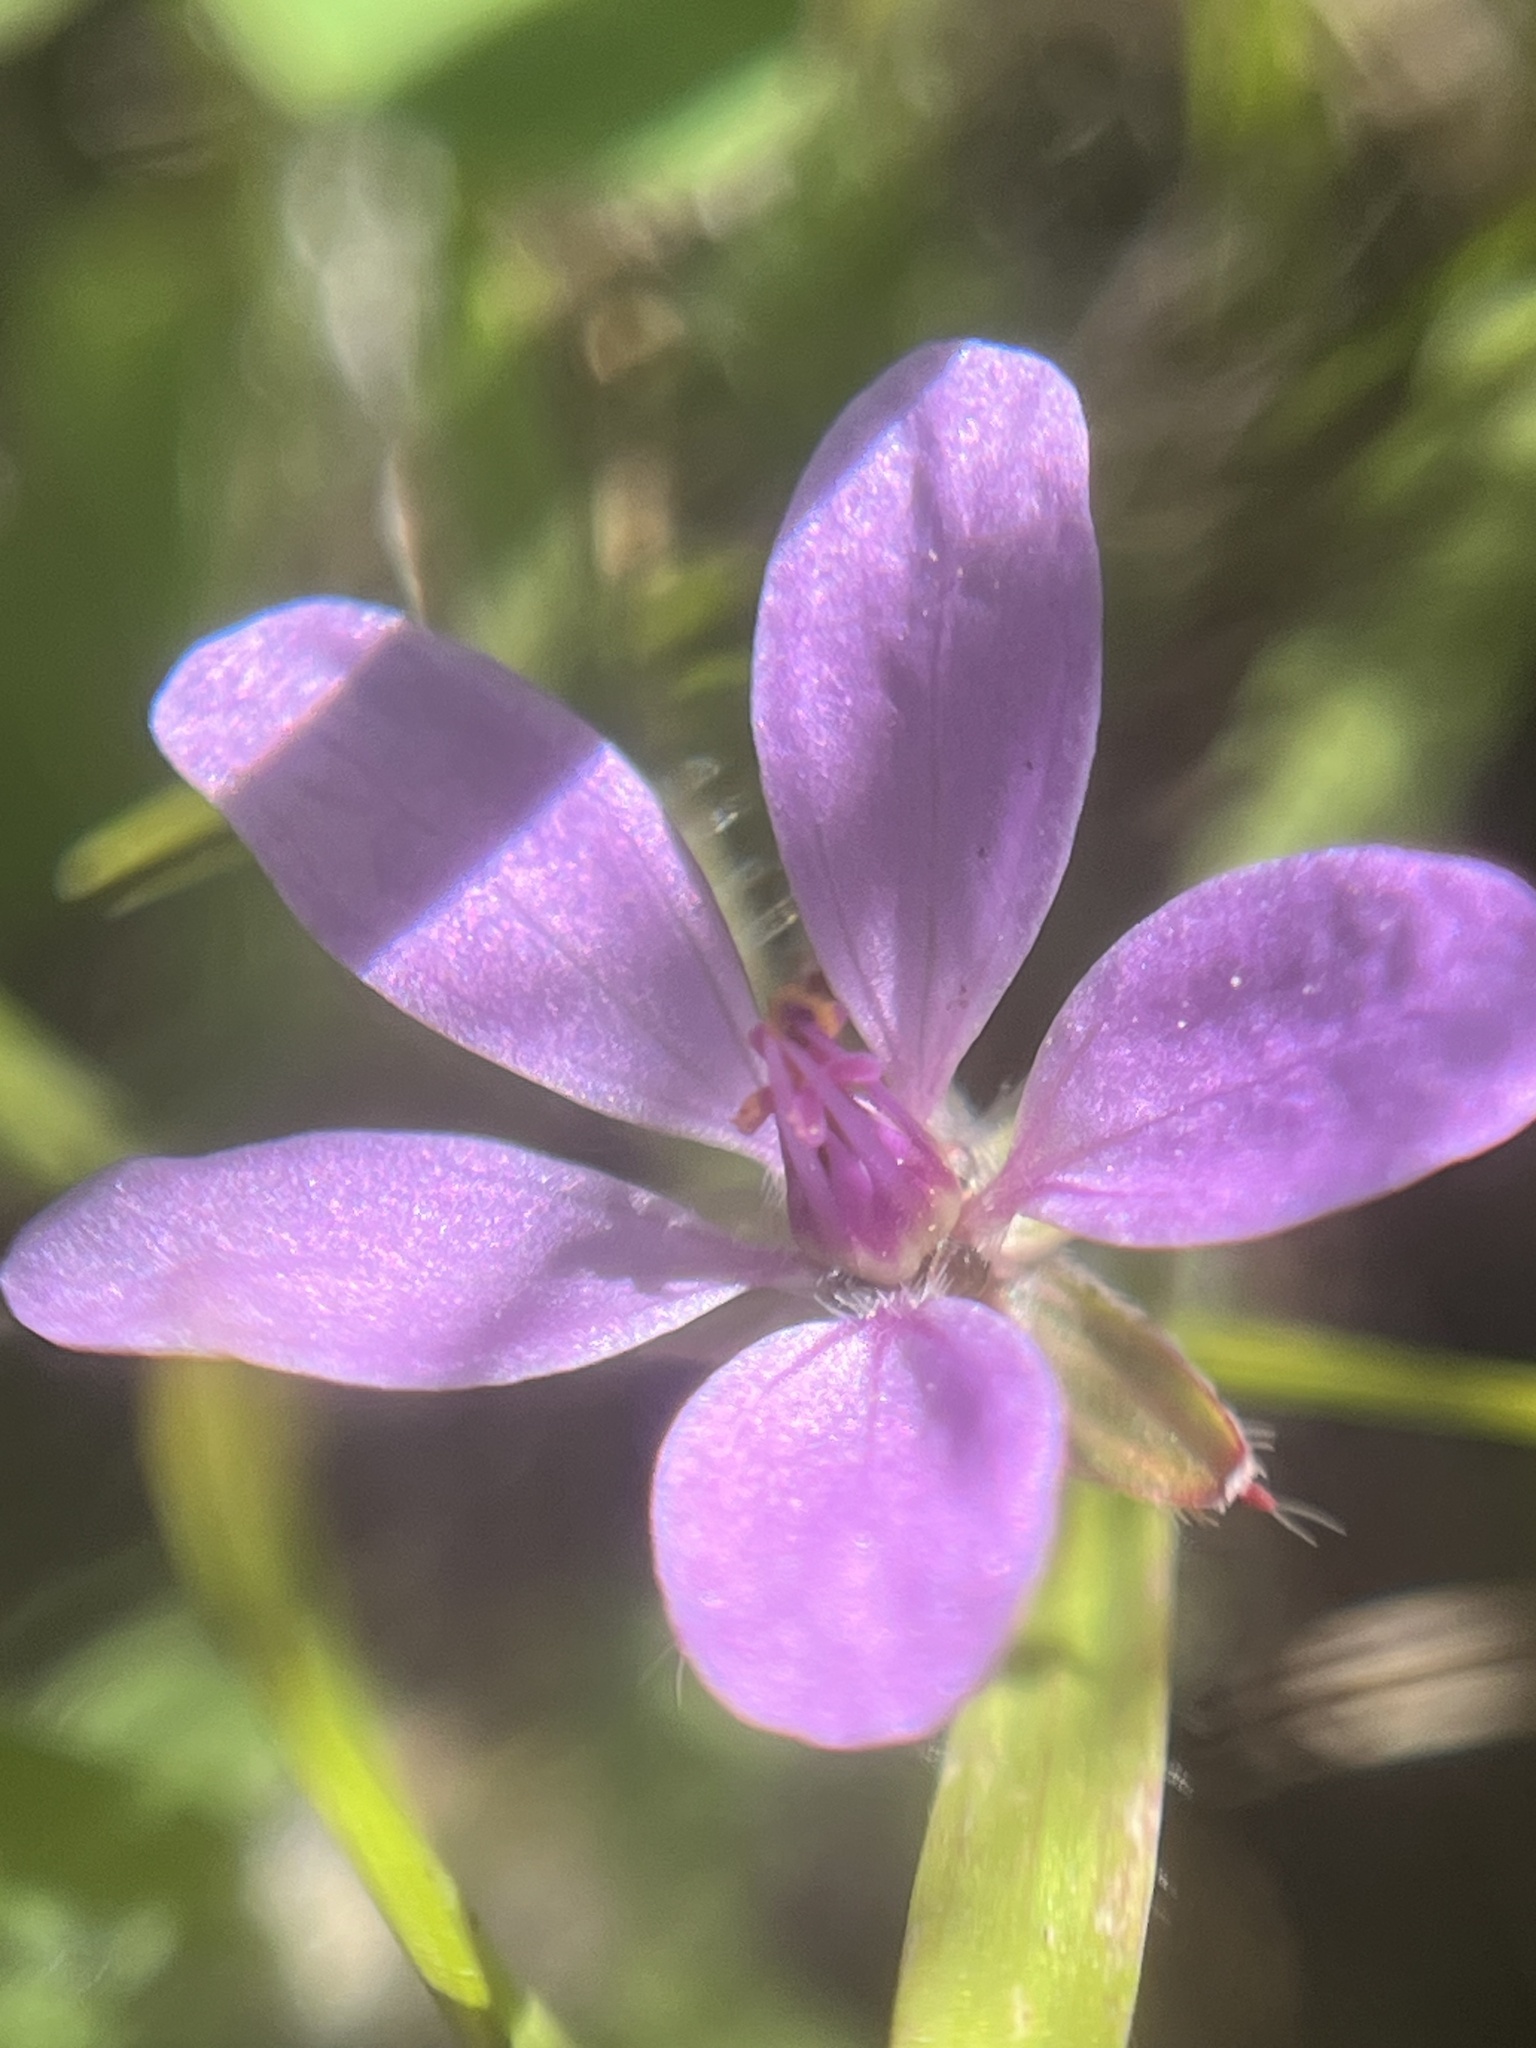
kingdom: Plantae
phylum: Tracheophyta
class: Magnoliopsida
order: Geraniales
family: Geraniaceae
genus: Erodium
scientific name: Erodium cicutarium
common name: Common stork's-bill
